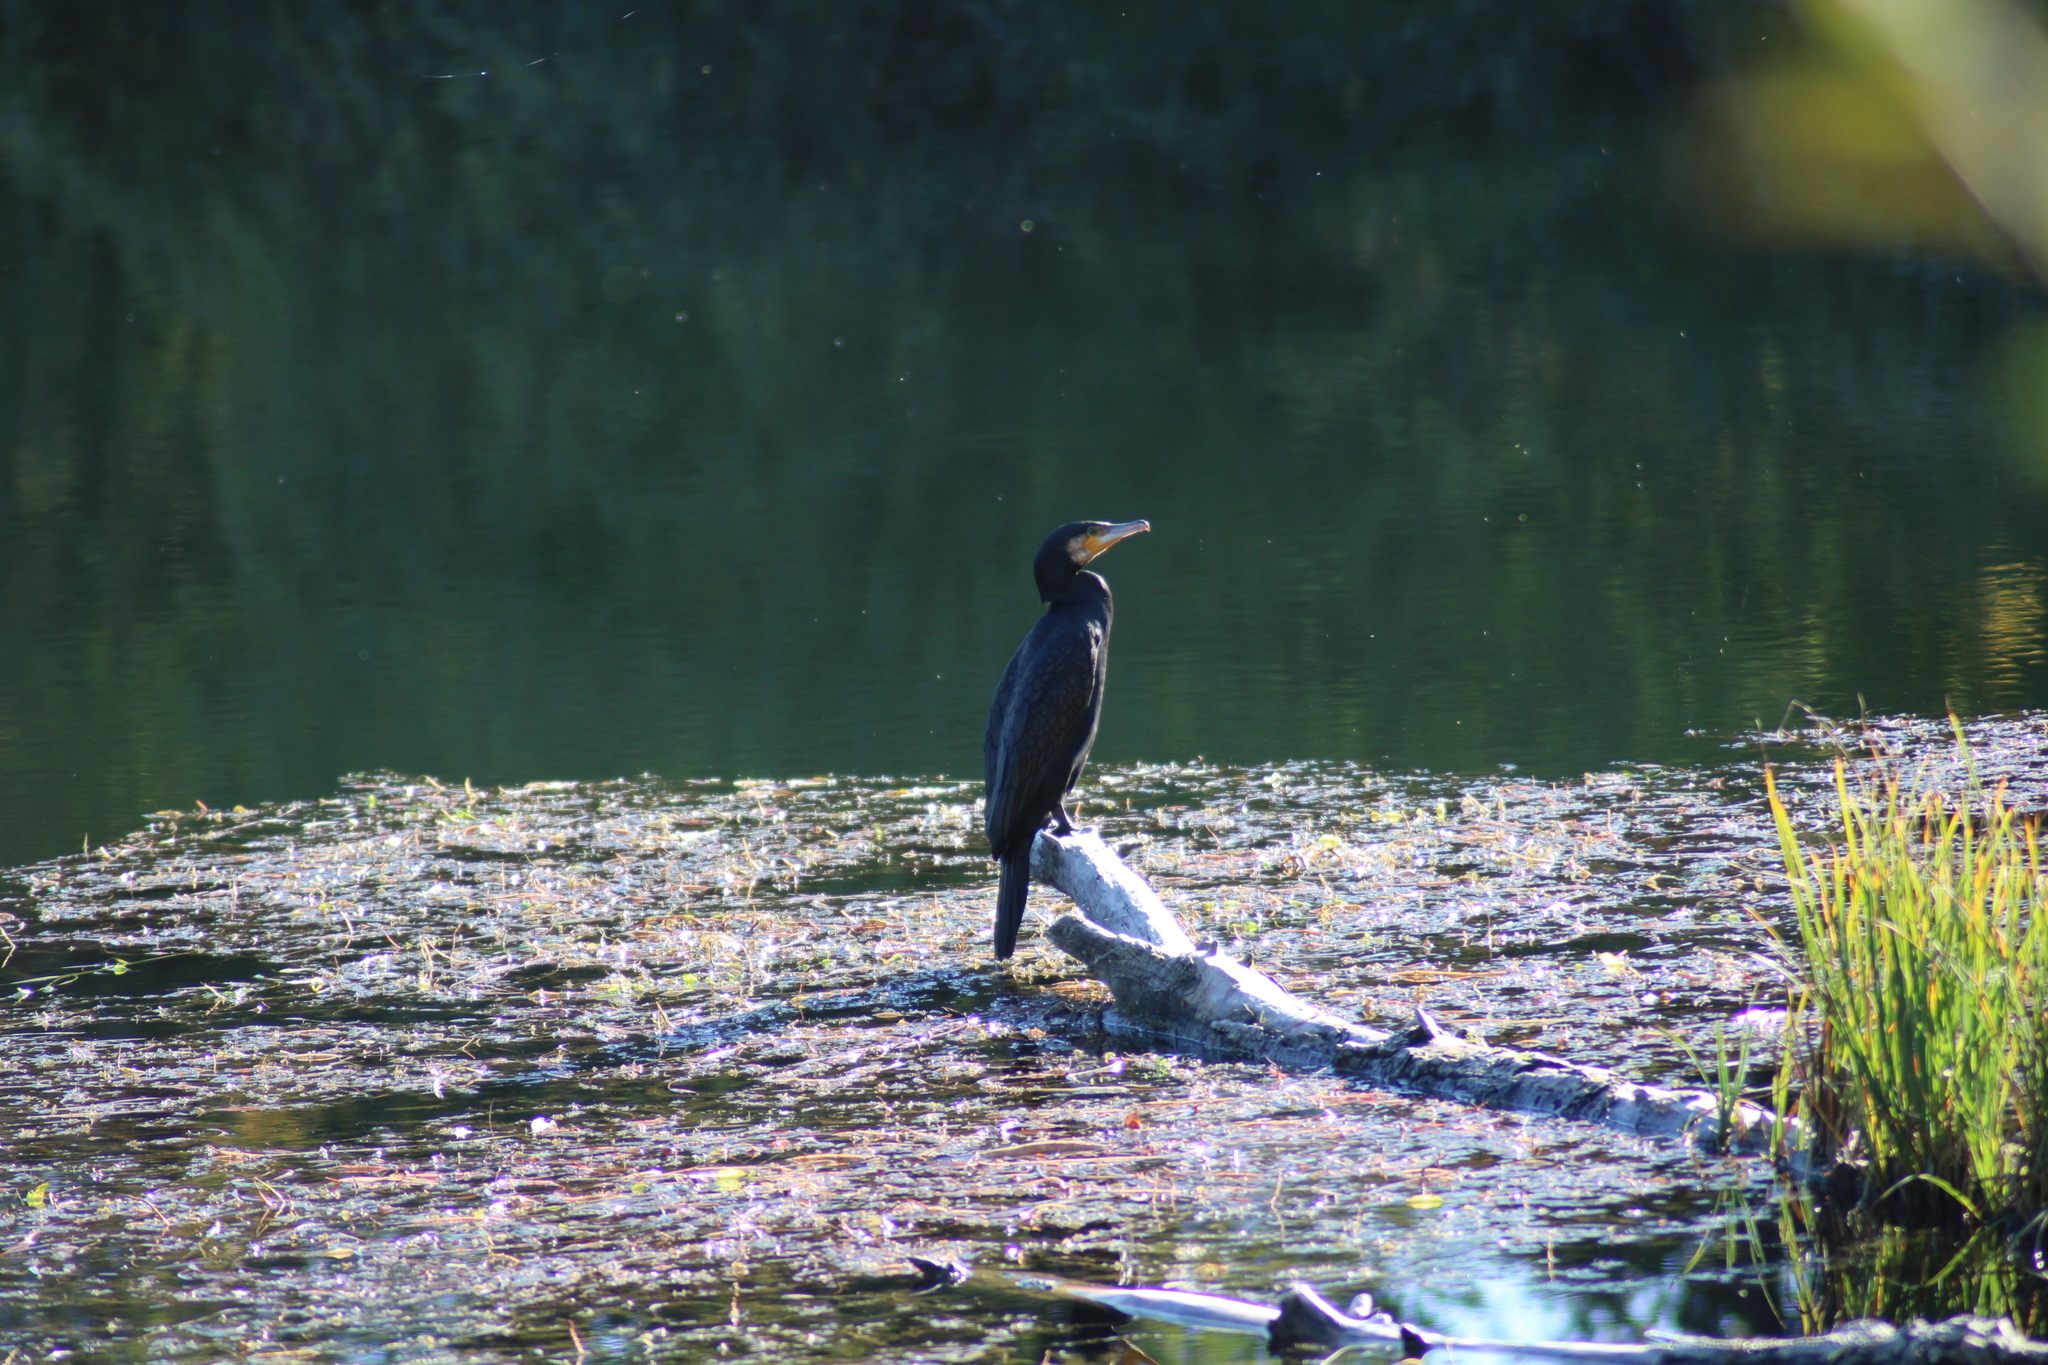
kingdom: Animalia
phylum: Chordata
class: Aves
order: Suliformes
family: Phalacrocoracidae
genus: Phalacrocorax
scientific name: Phalacrocorax carbo
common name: Great cormorant
